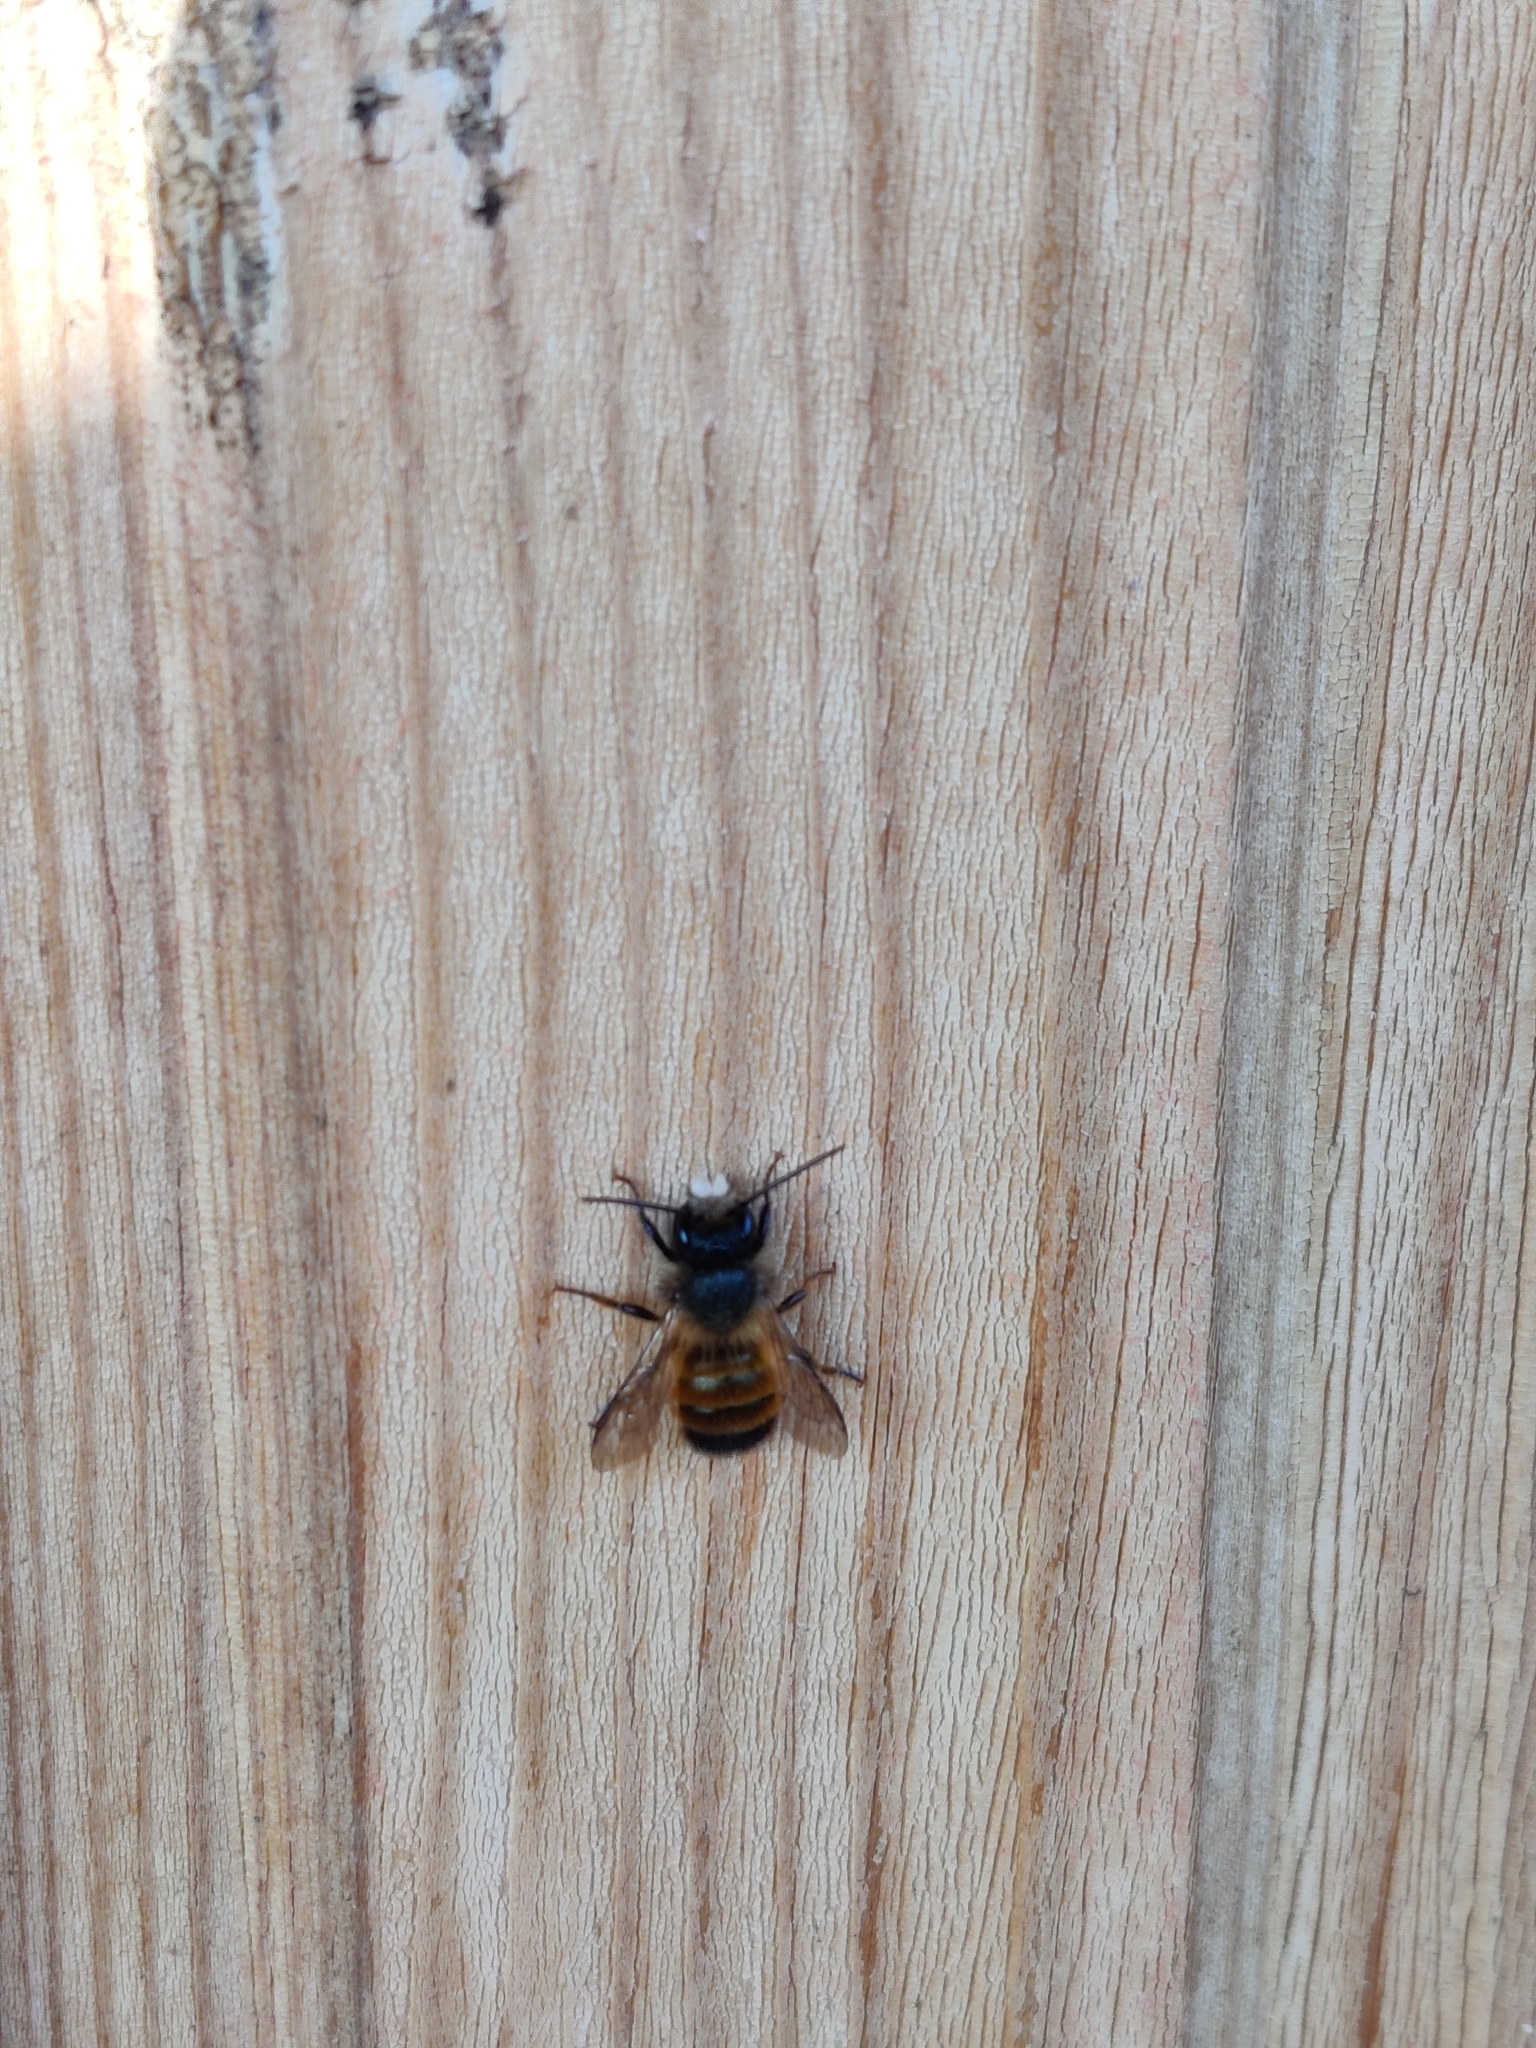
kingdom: Animalia
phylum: Arthropoda
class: Insecta
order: Hymenoptera
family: Megachilidae
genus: Osmia
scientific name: Osmia bicornis
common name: Red mason bee
